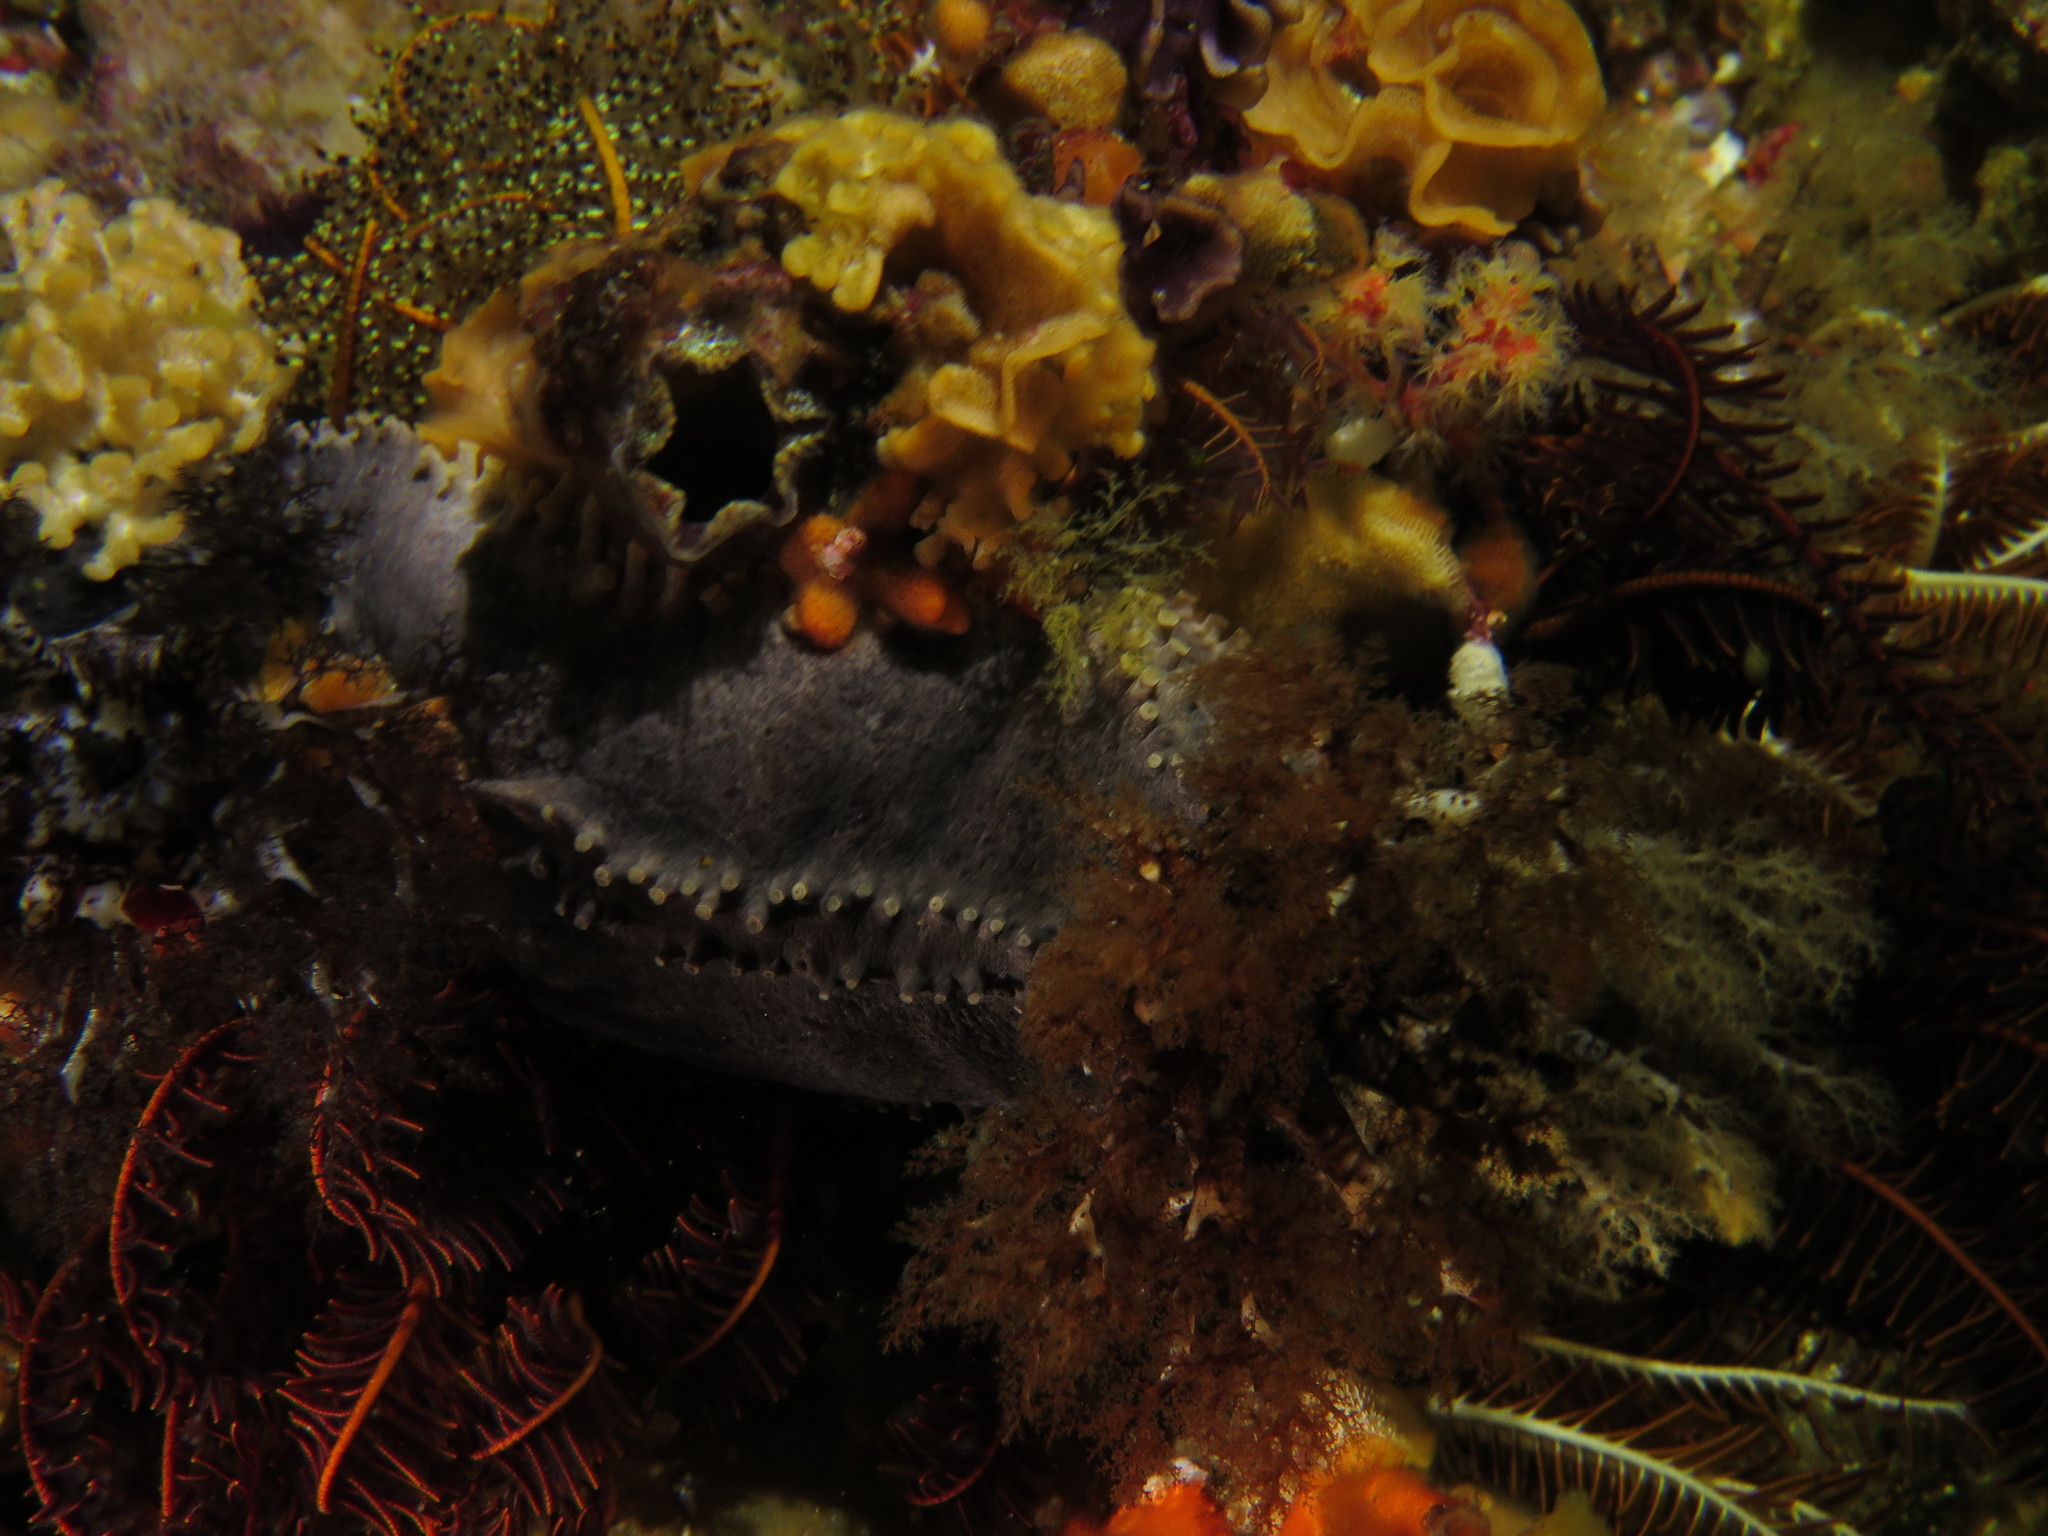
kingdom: Animalia
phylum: Echinodermata
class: Holothuroidea
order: Dendrochirotida
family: Cucumariidae
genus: Pentacta
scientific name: Pentacta doliolum
